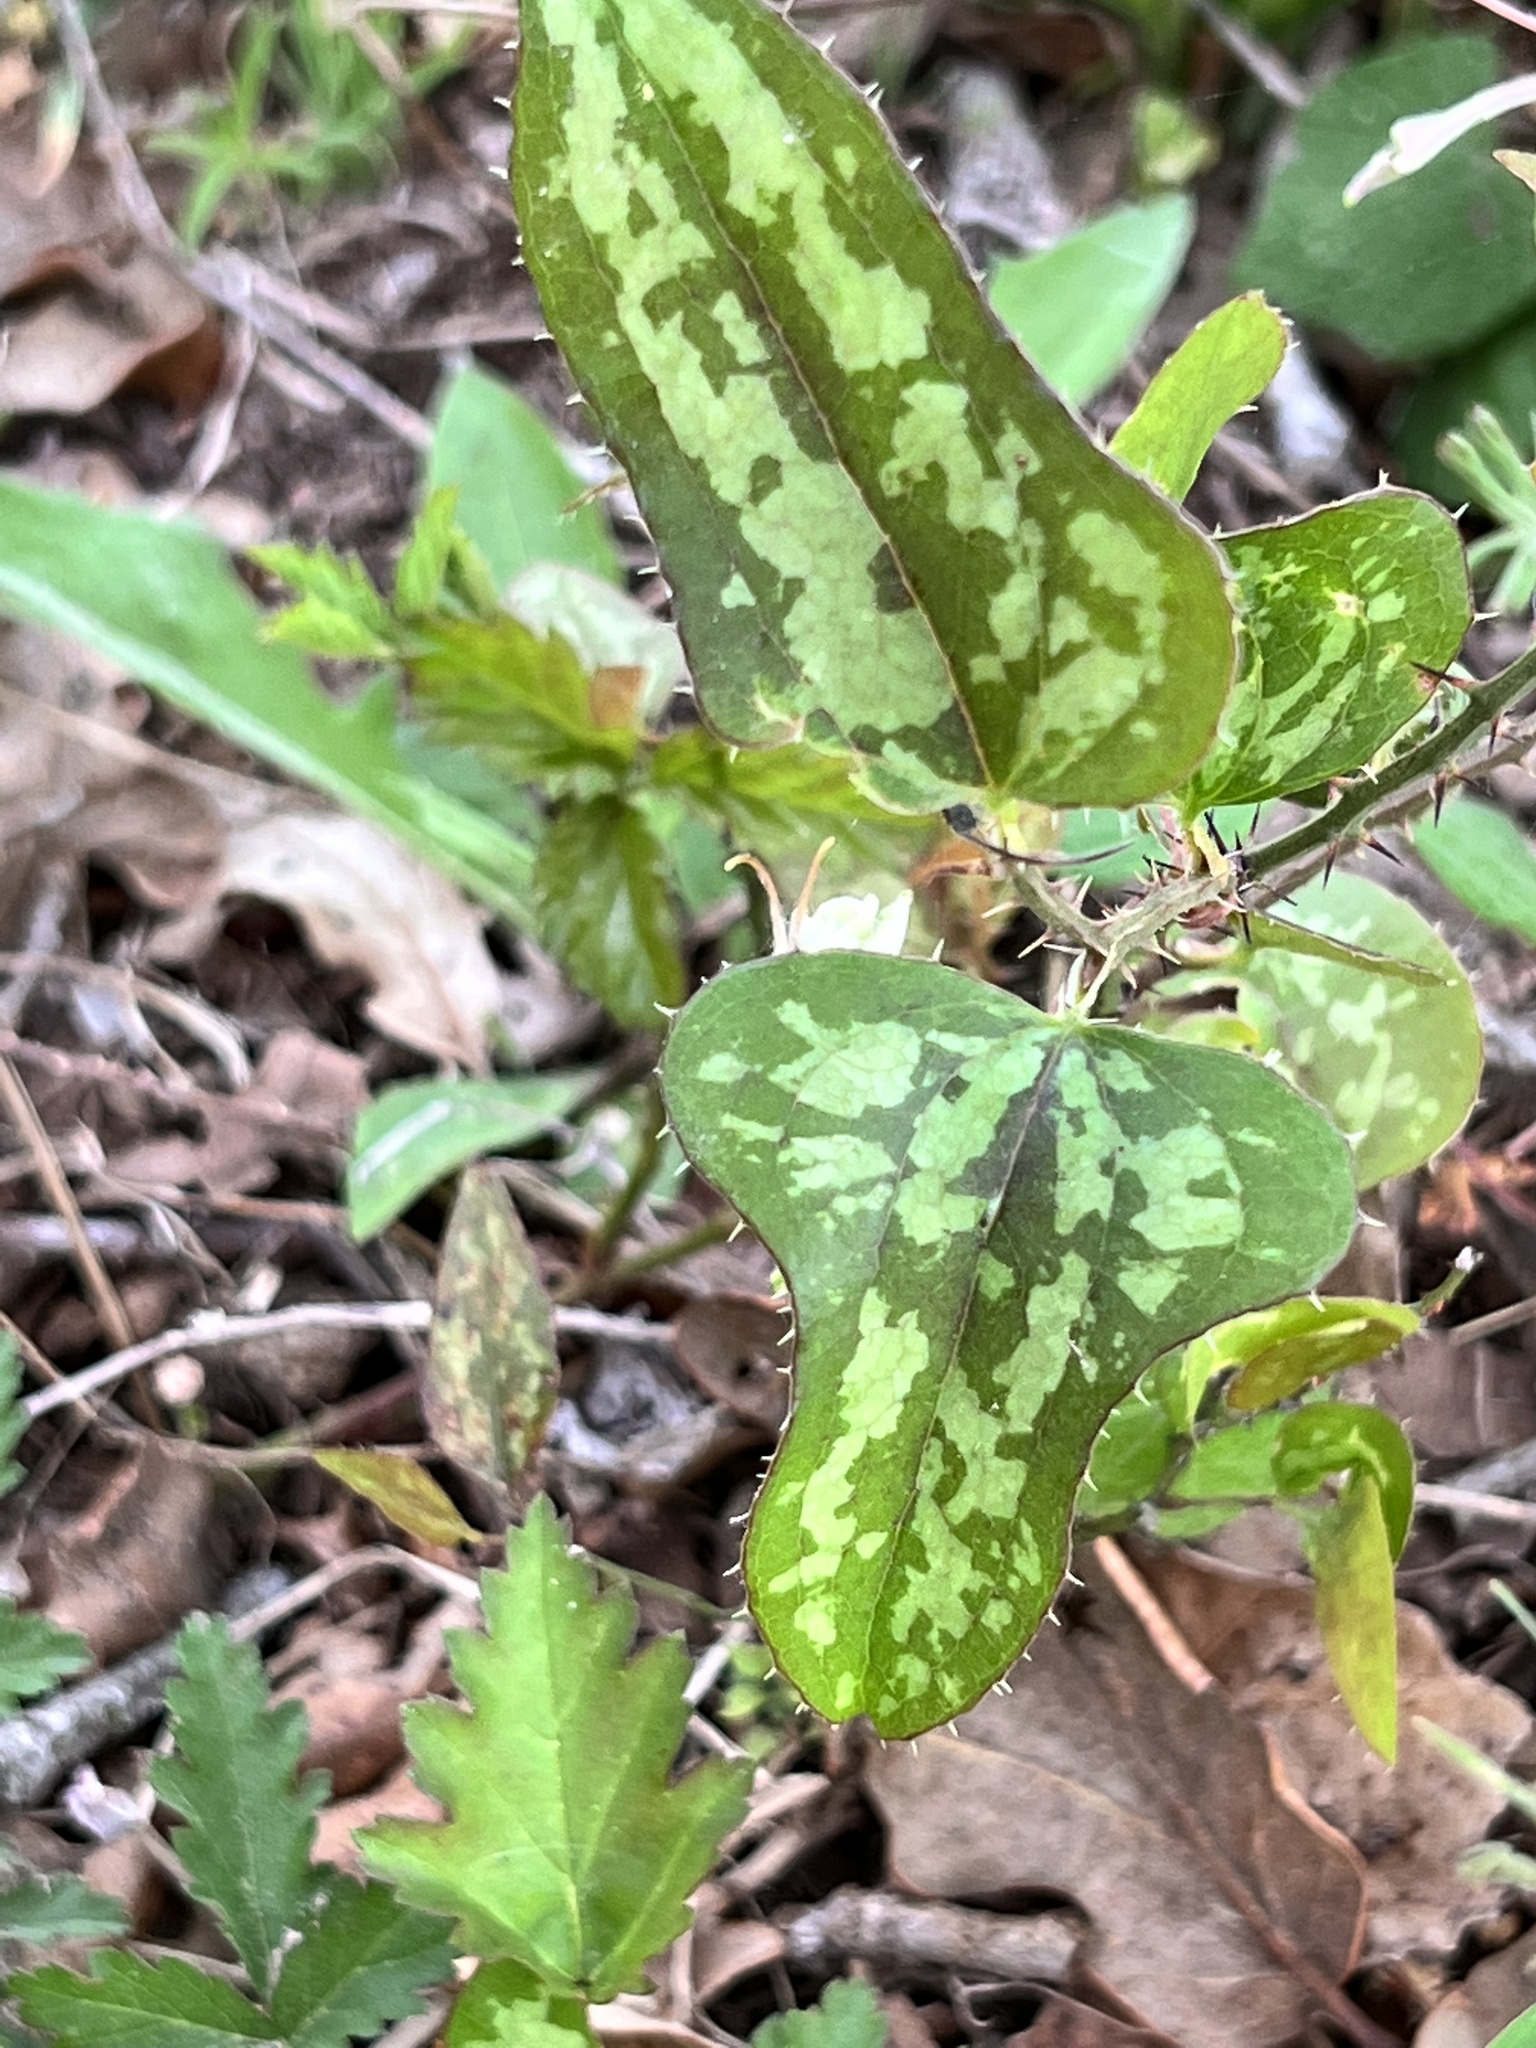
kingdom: Plantae
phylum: Tracheophyta
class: Liliopsida
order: Liliales
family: Smilacaceae
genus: Smilax
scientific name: Smilax bona-nox
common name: Catbrier
